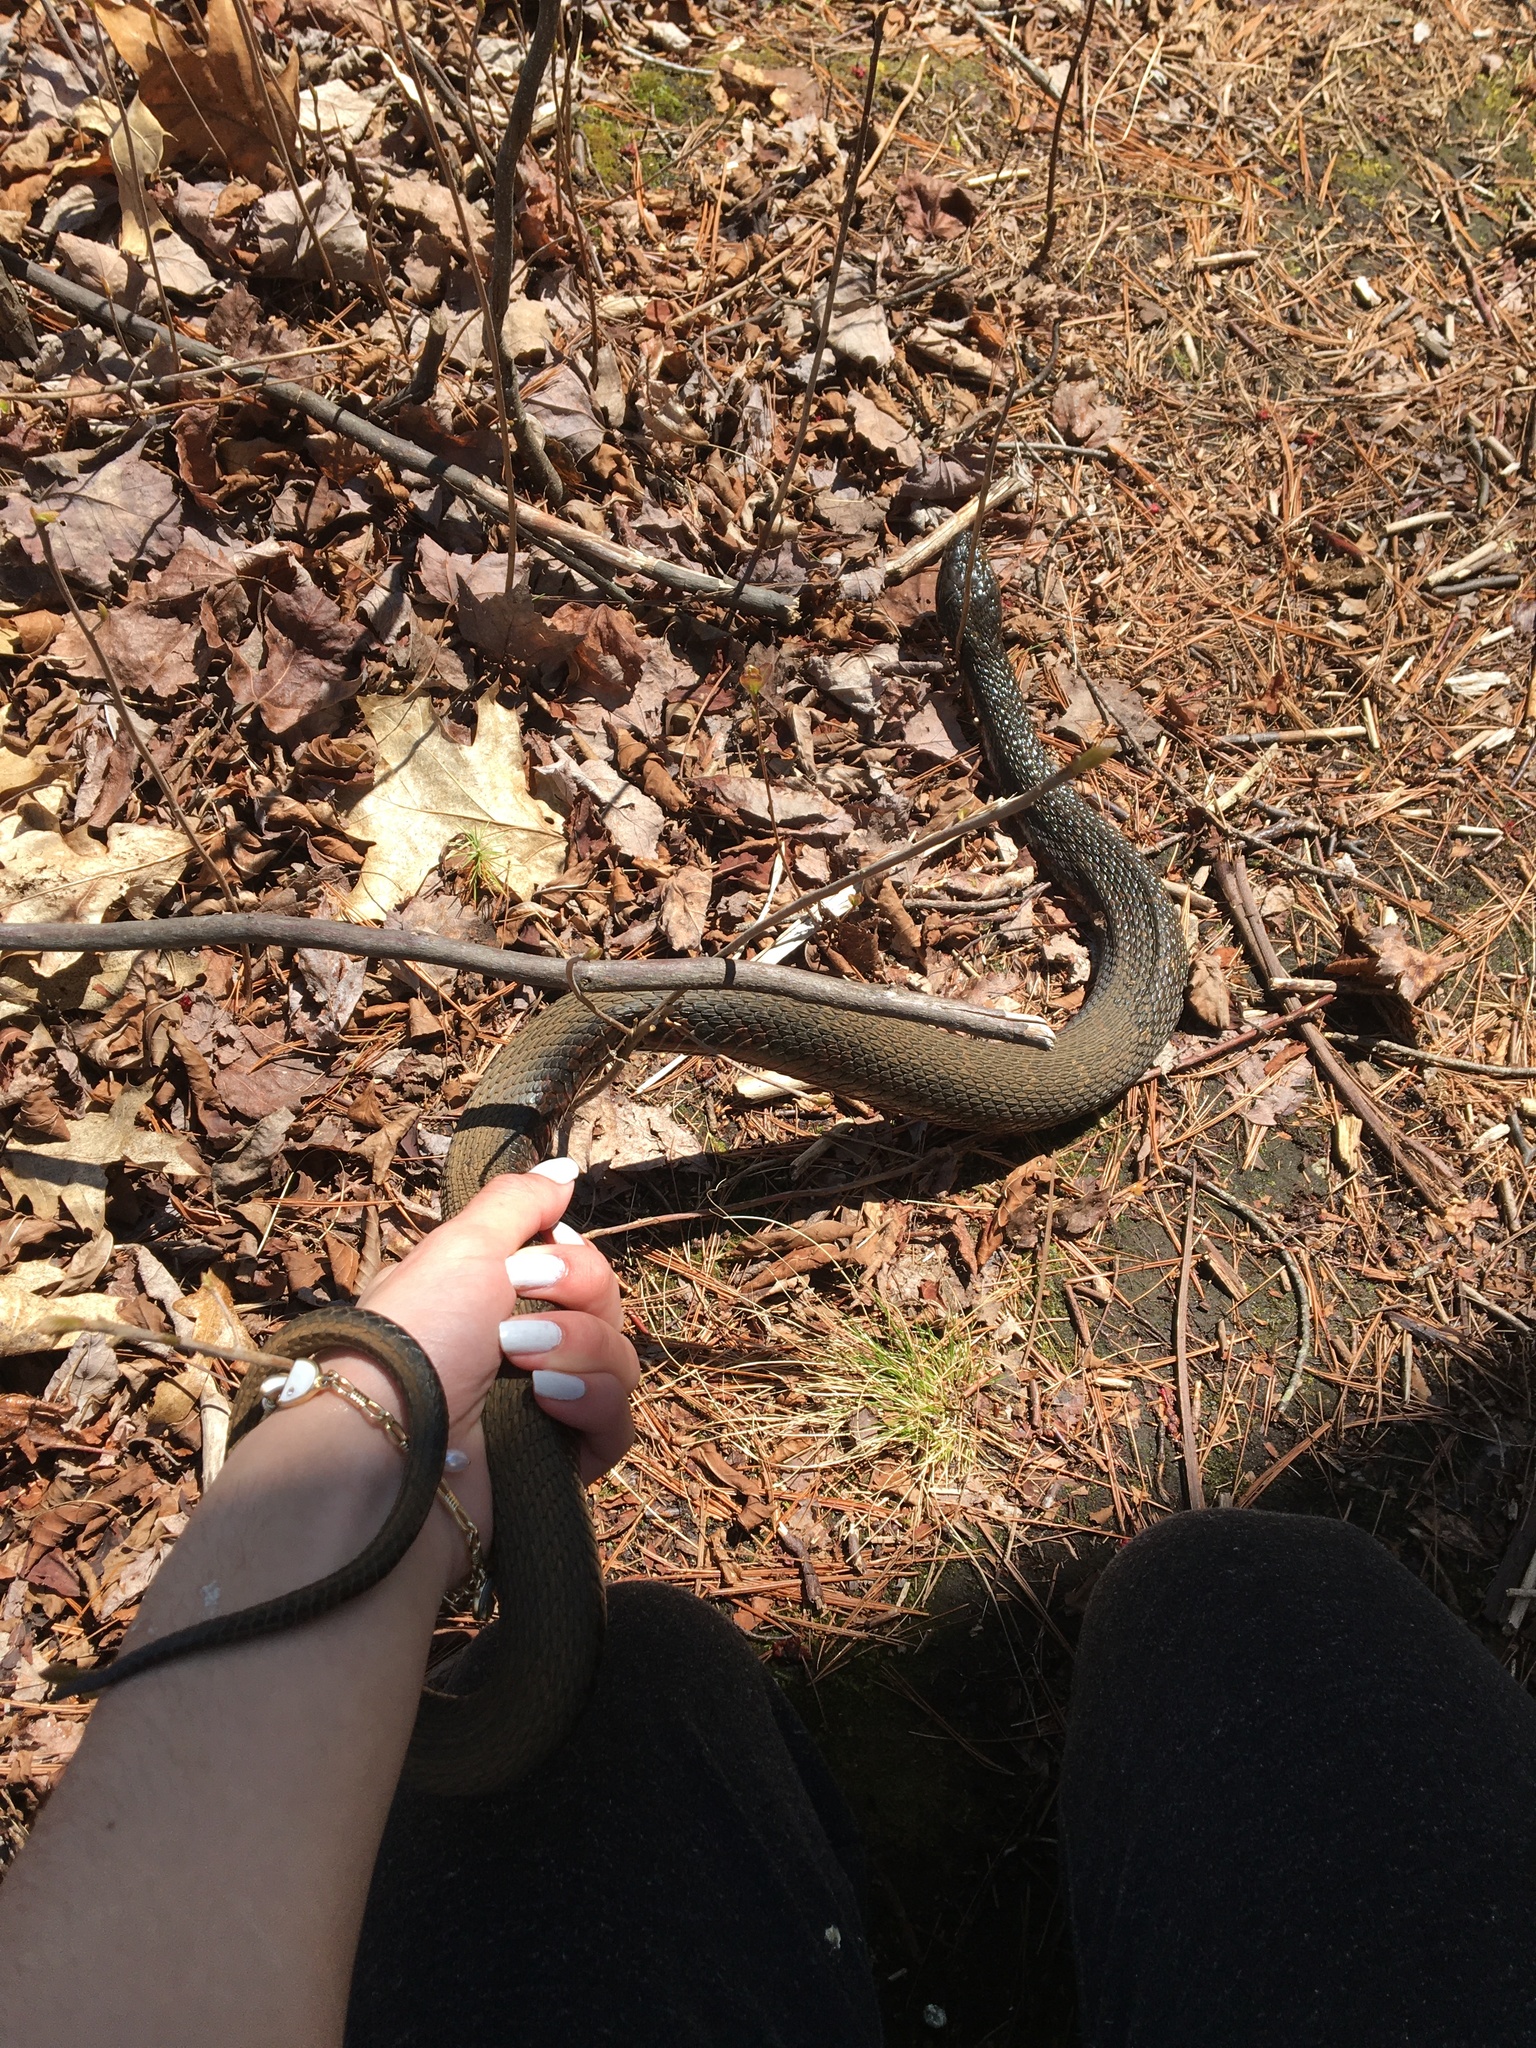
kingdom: Animalia
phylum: Chordata
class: Squamata
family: Colubridae
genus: Nerodia
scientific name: Nerodia sipedon
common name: Northern water snake
